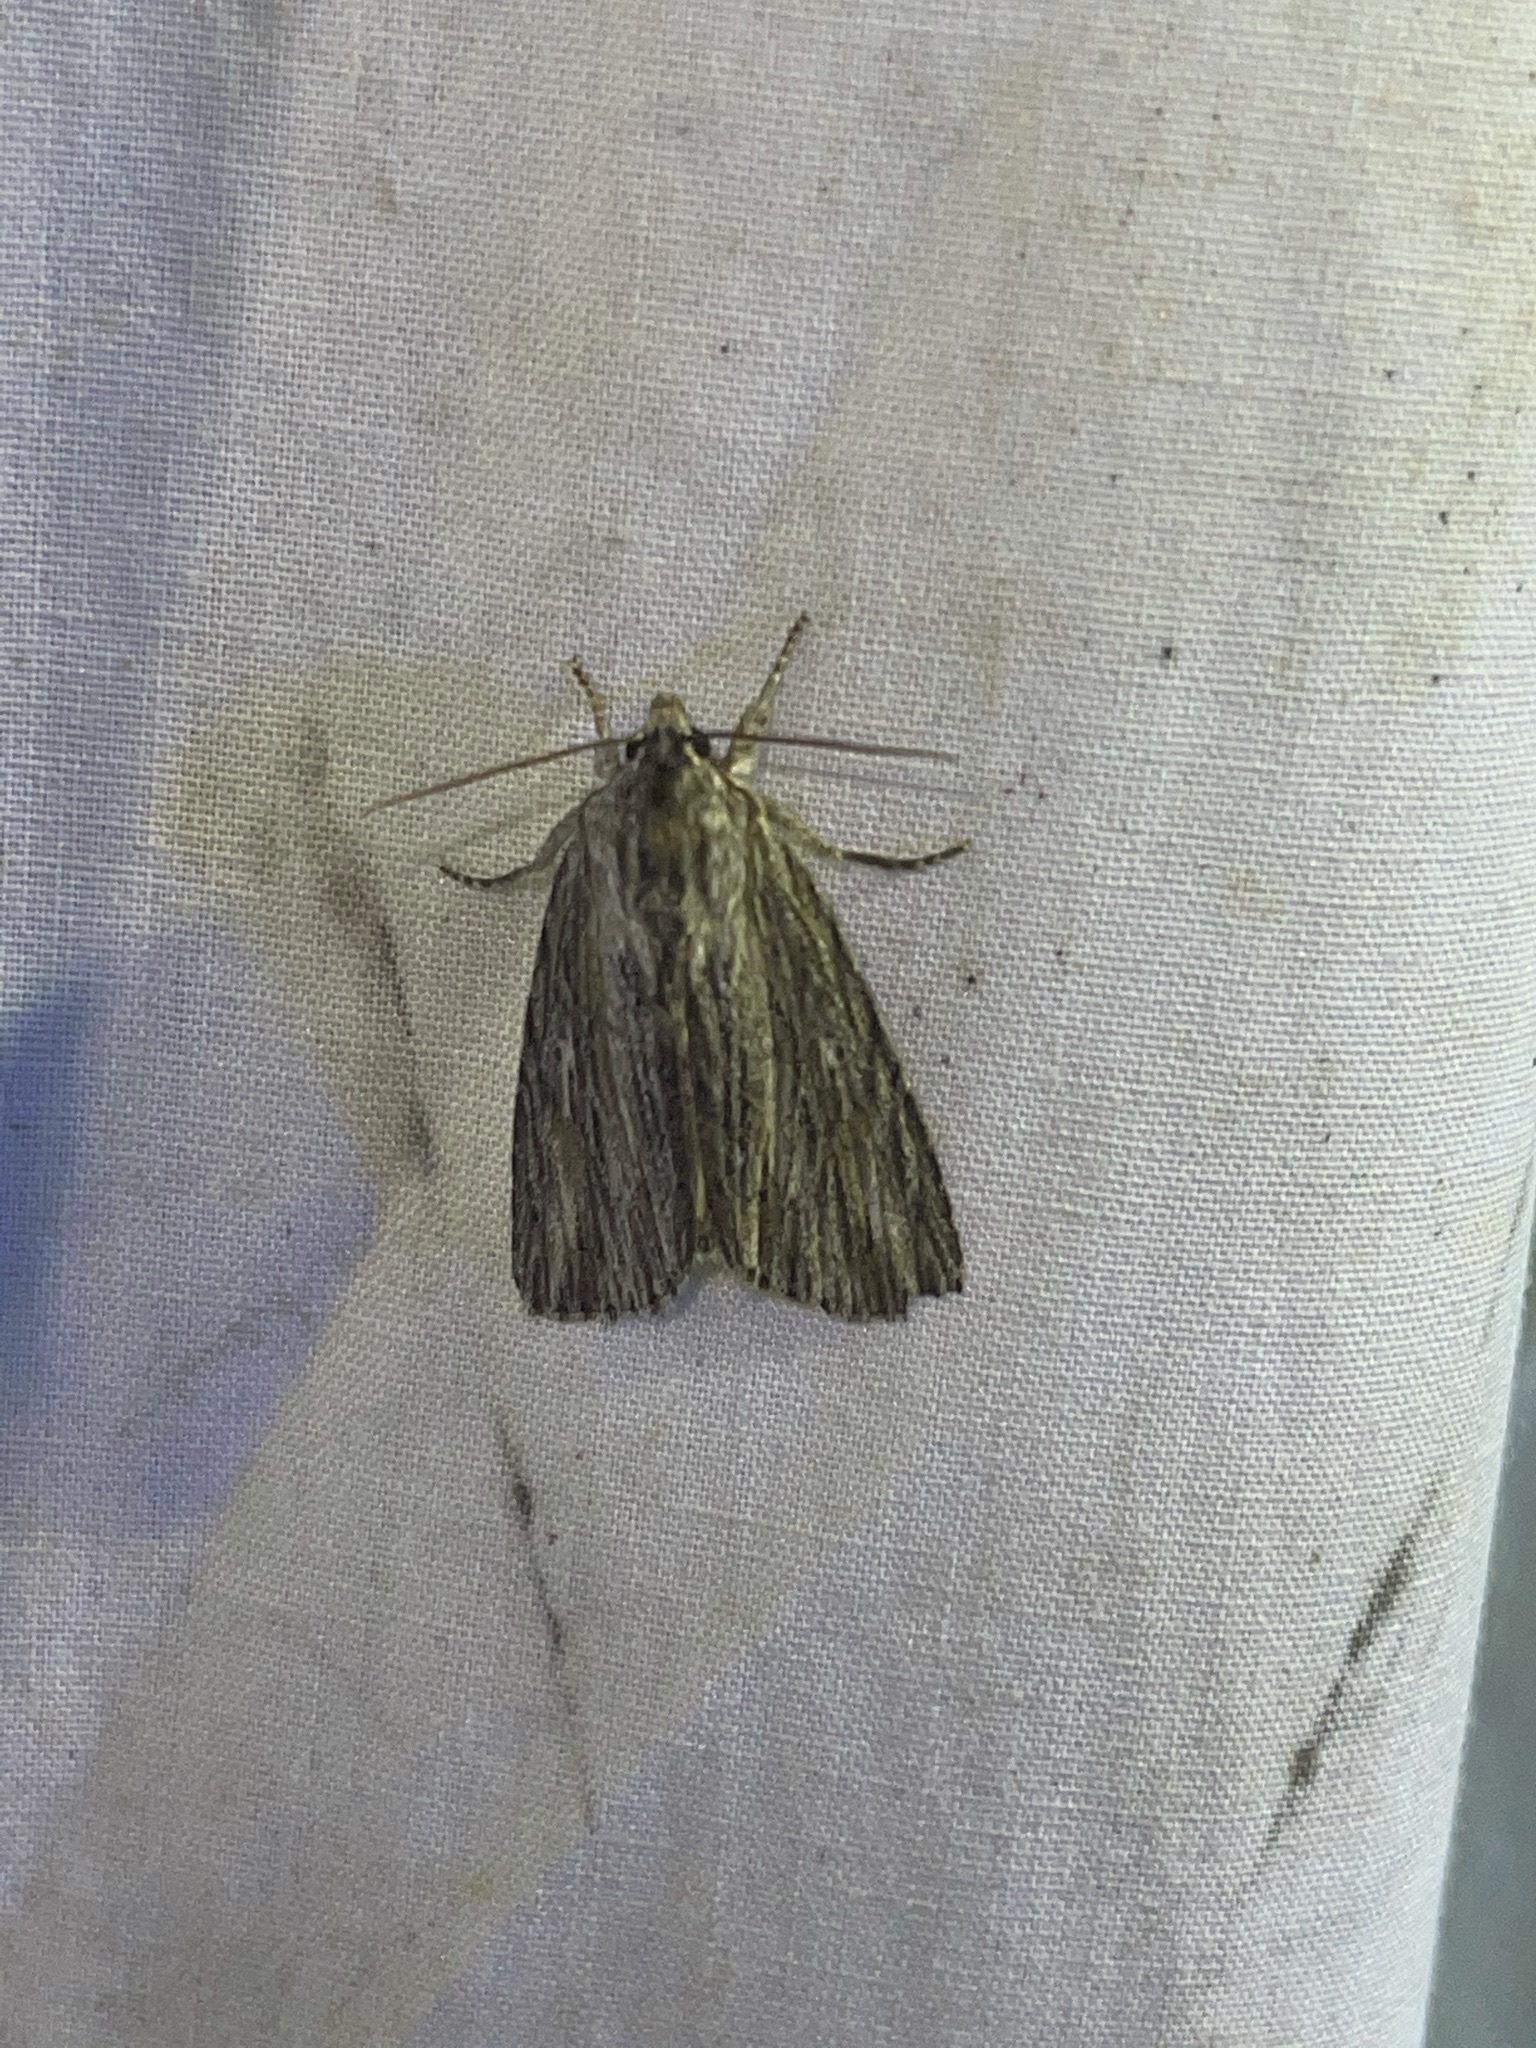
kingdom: Animalia
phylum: Arthropoda
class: Insecta
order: Lepidoptera
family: Noctuidae
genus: Acronicta
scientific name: Acronicta lithospila
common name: Streaked dagger
